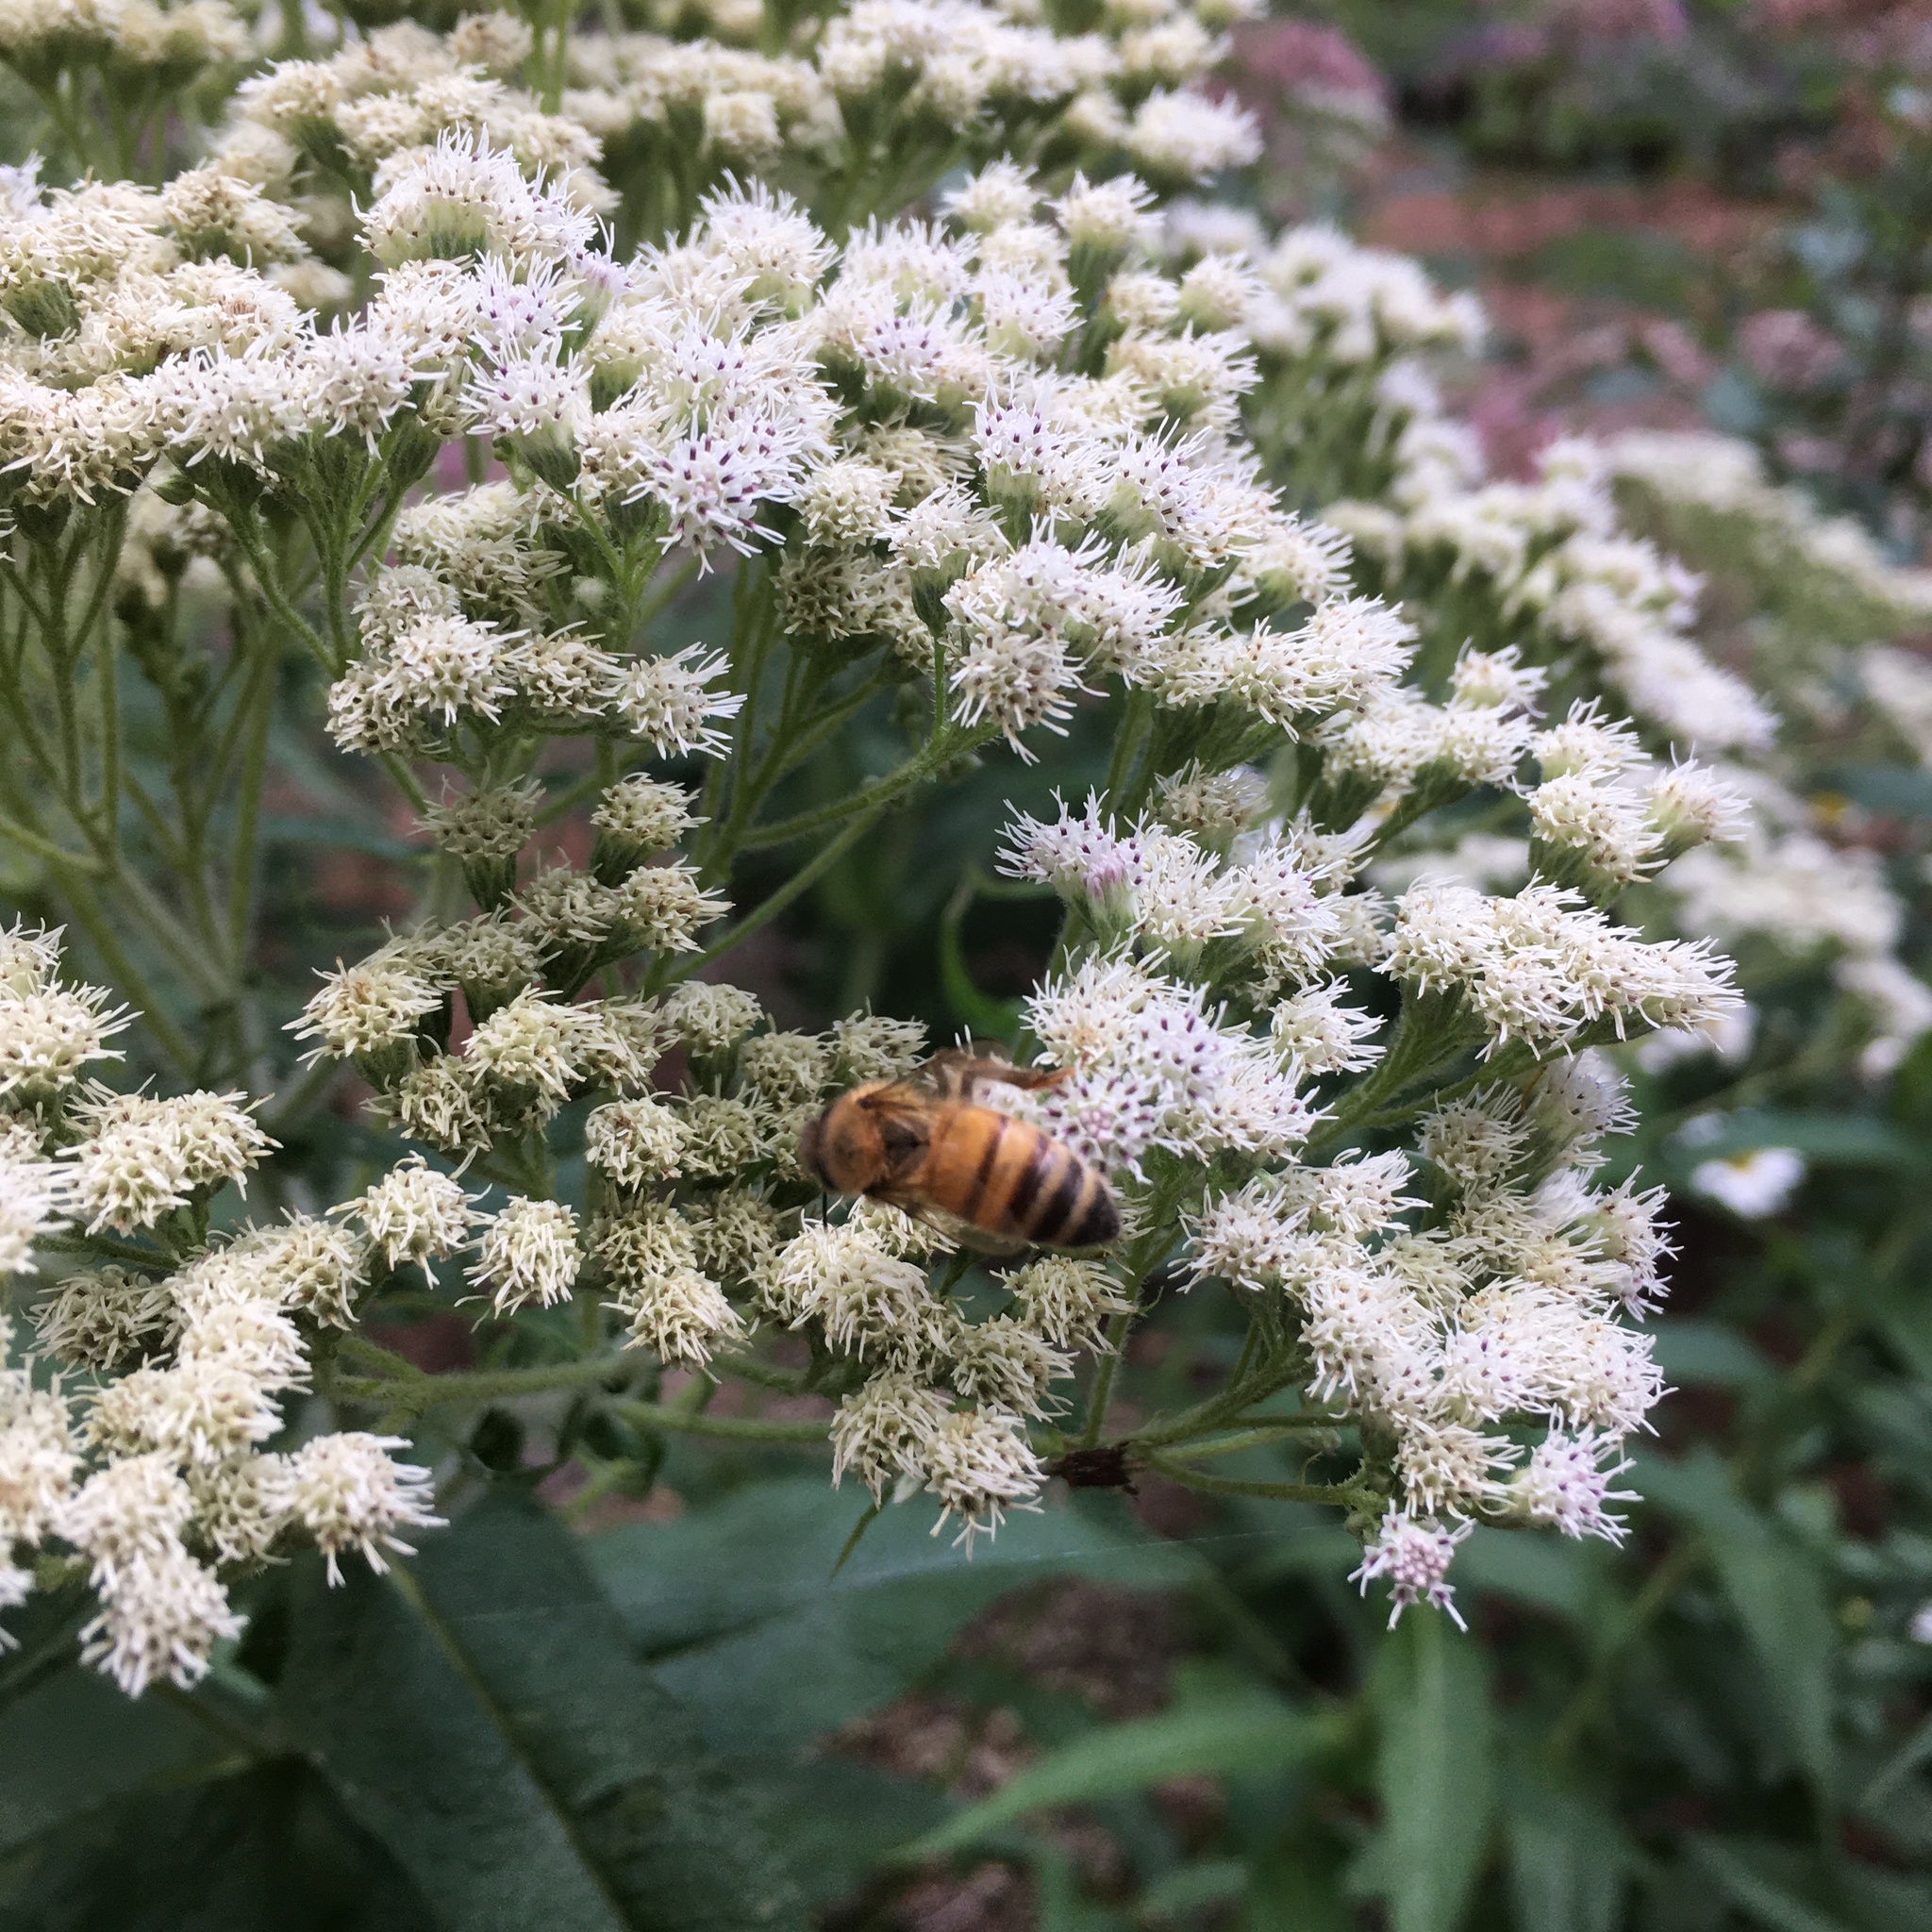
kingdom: Animalia
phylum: Arthropoda
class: Insecta
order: Hymenoptera
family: Apidae
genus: Apis
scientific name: Apis mellifera
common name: Honey bee
